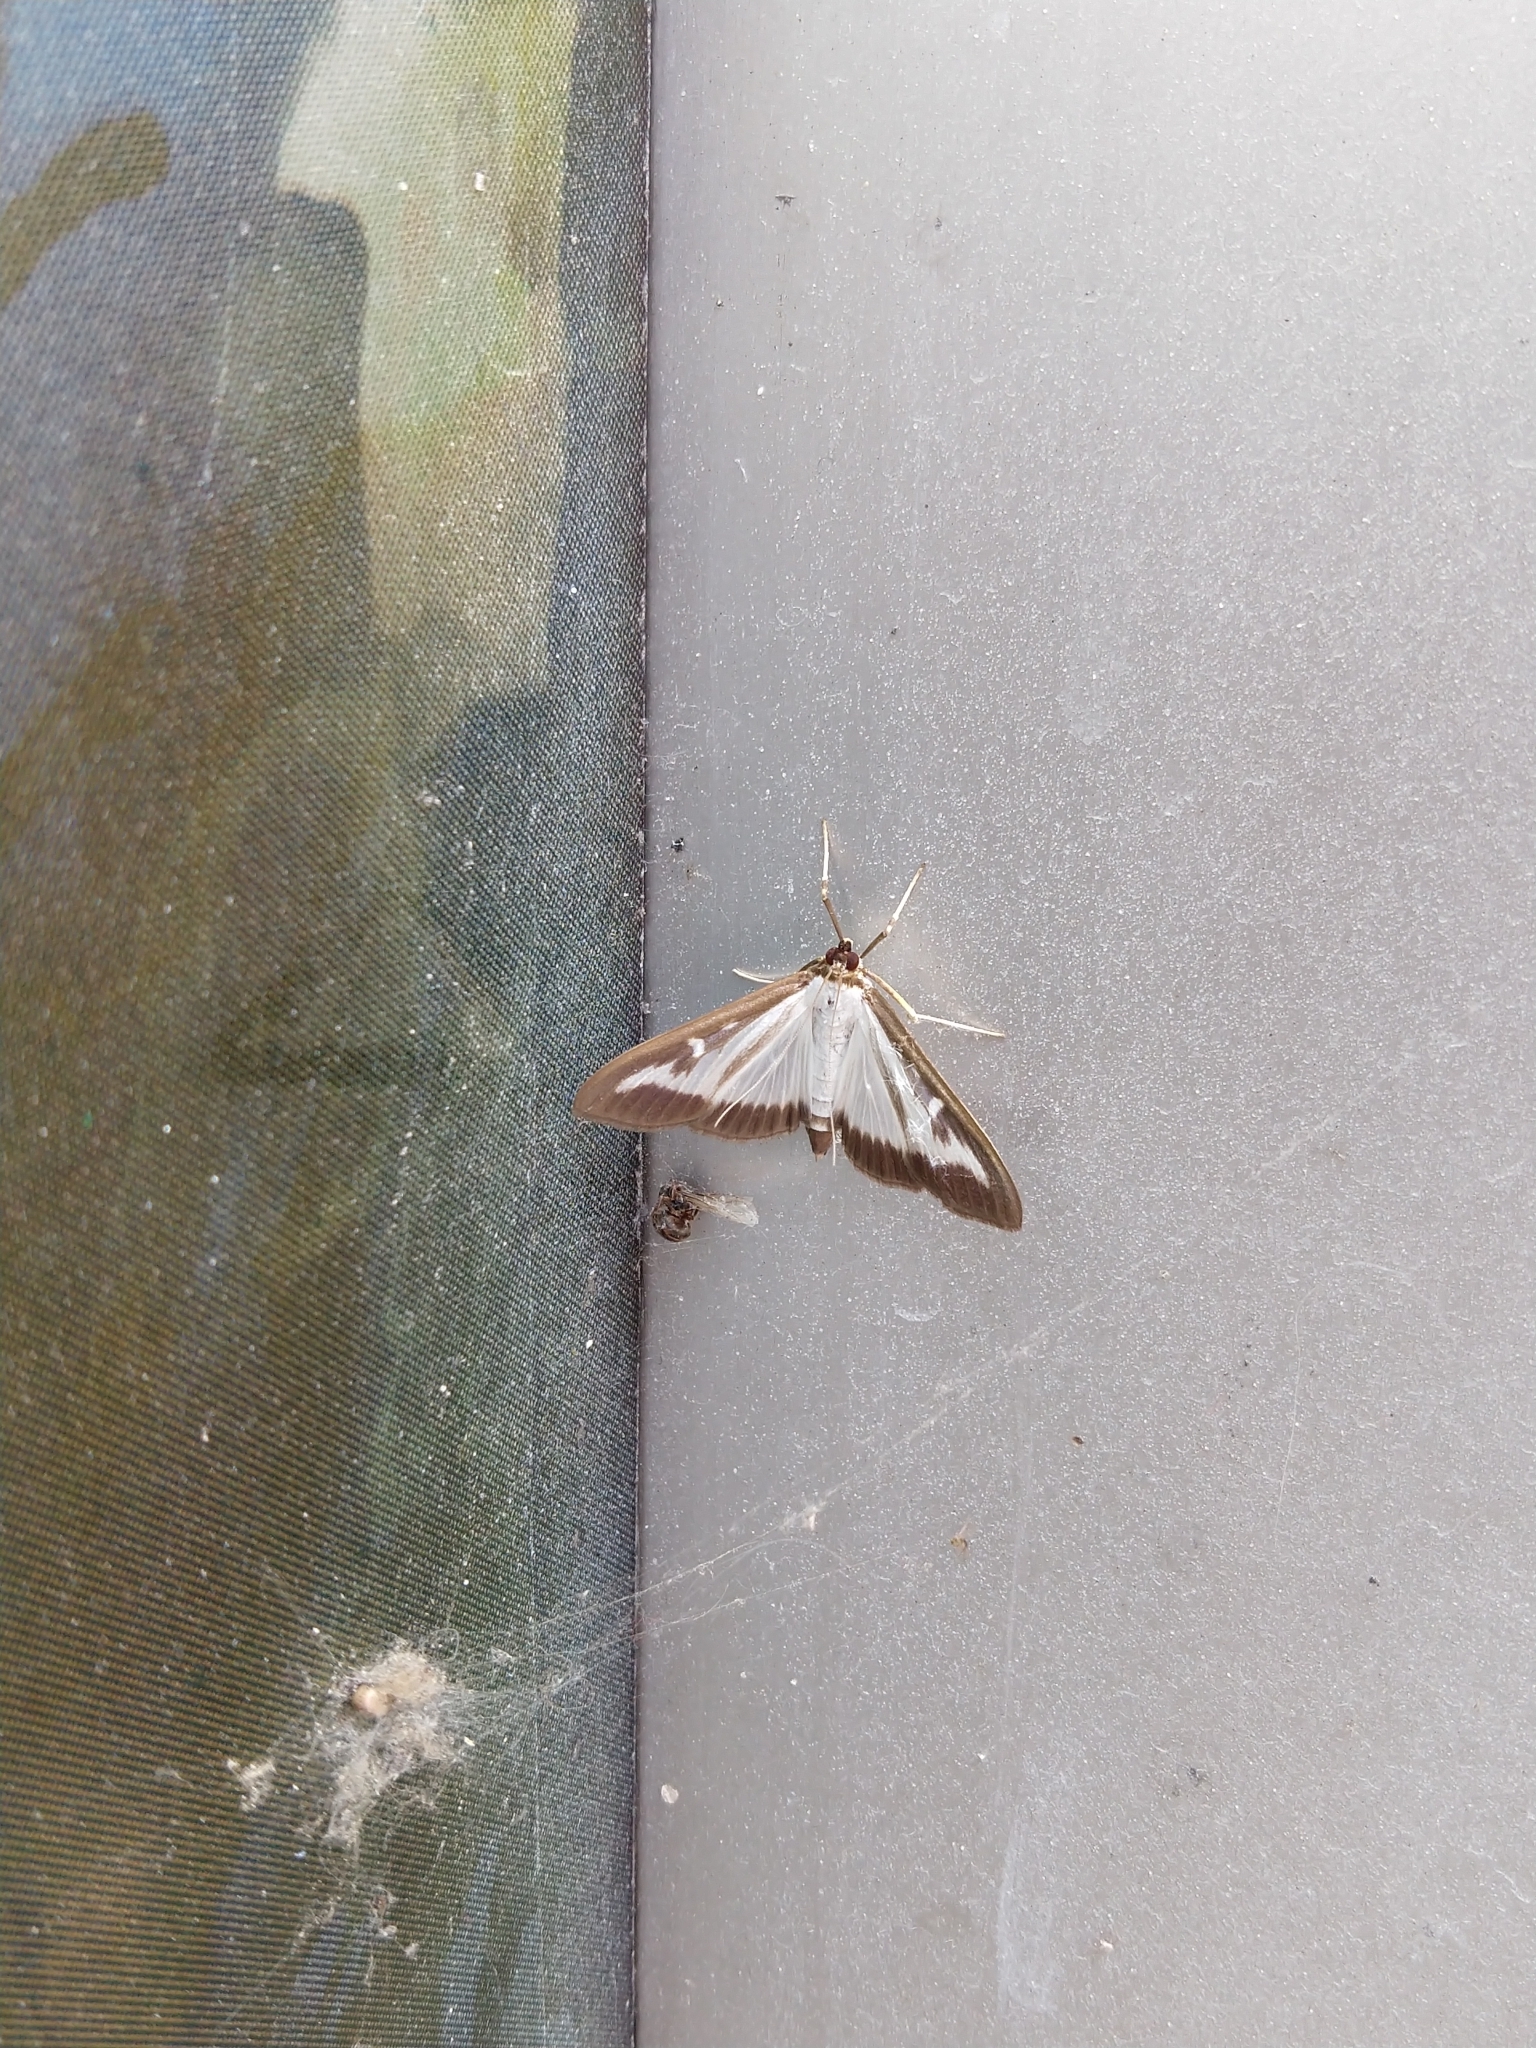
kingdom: Animalia
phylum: Arthropoda
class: Insecta
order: Lepidoptera
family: Crambidae
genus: Cydalima
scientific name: Cydalima perspectalis
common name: Box tree moth
